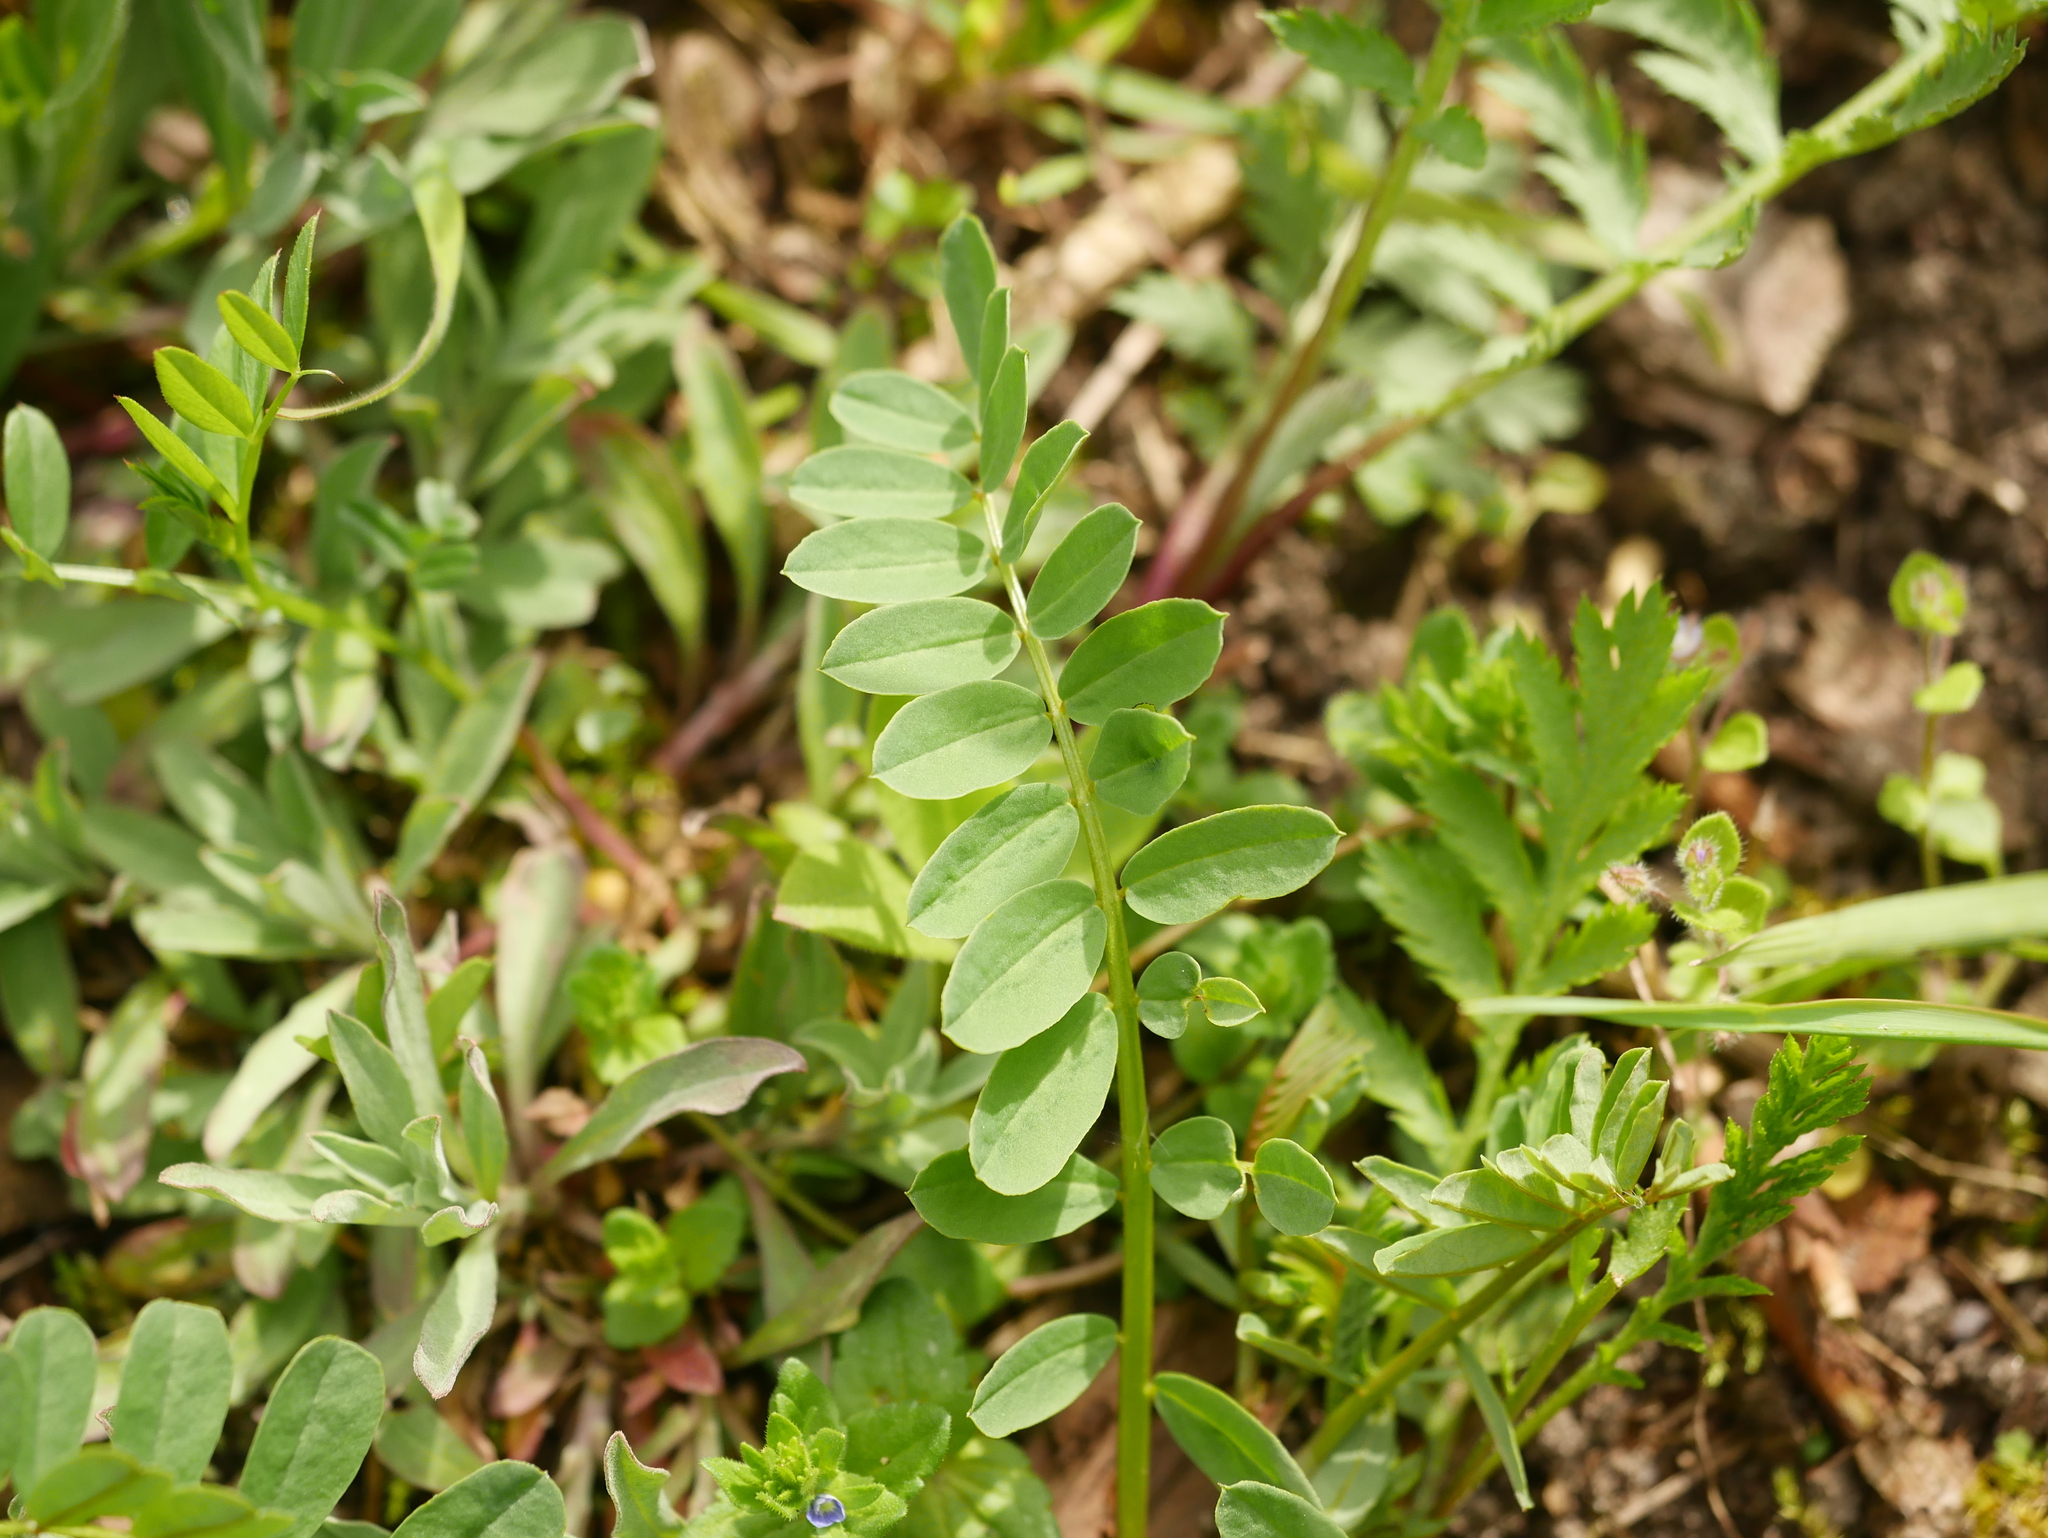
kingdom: Plantae
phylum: Tracheophyta
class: Magnoliopsida
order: Fabales
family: Fabaceae
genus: Coronilla
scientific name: Coronilla varia
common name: Crownvetch
